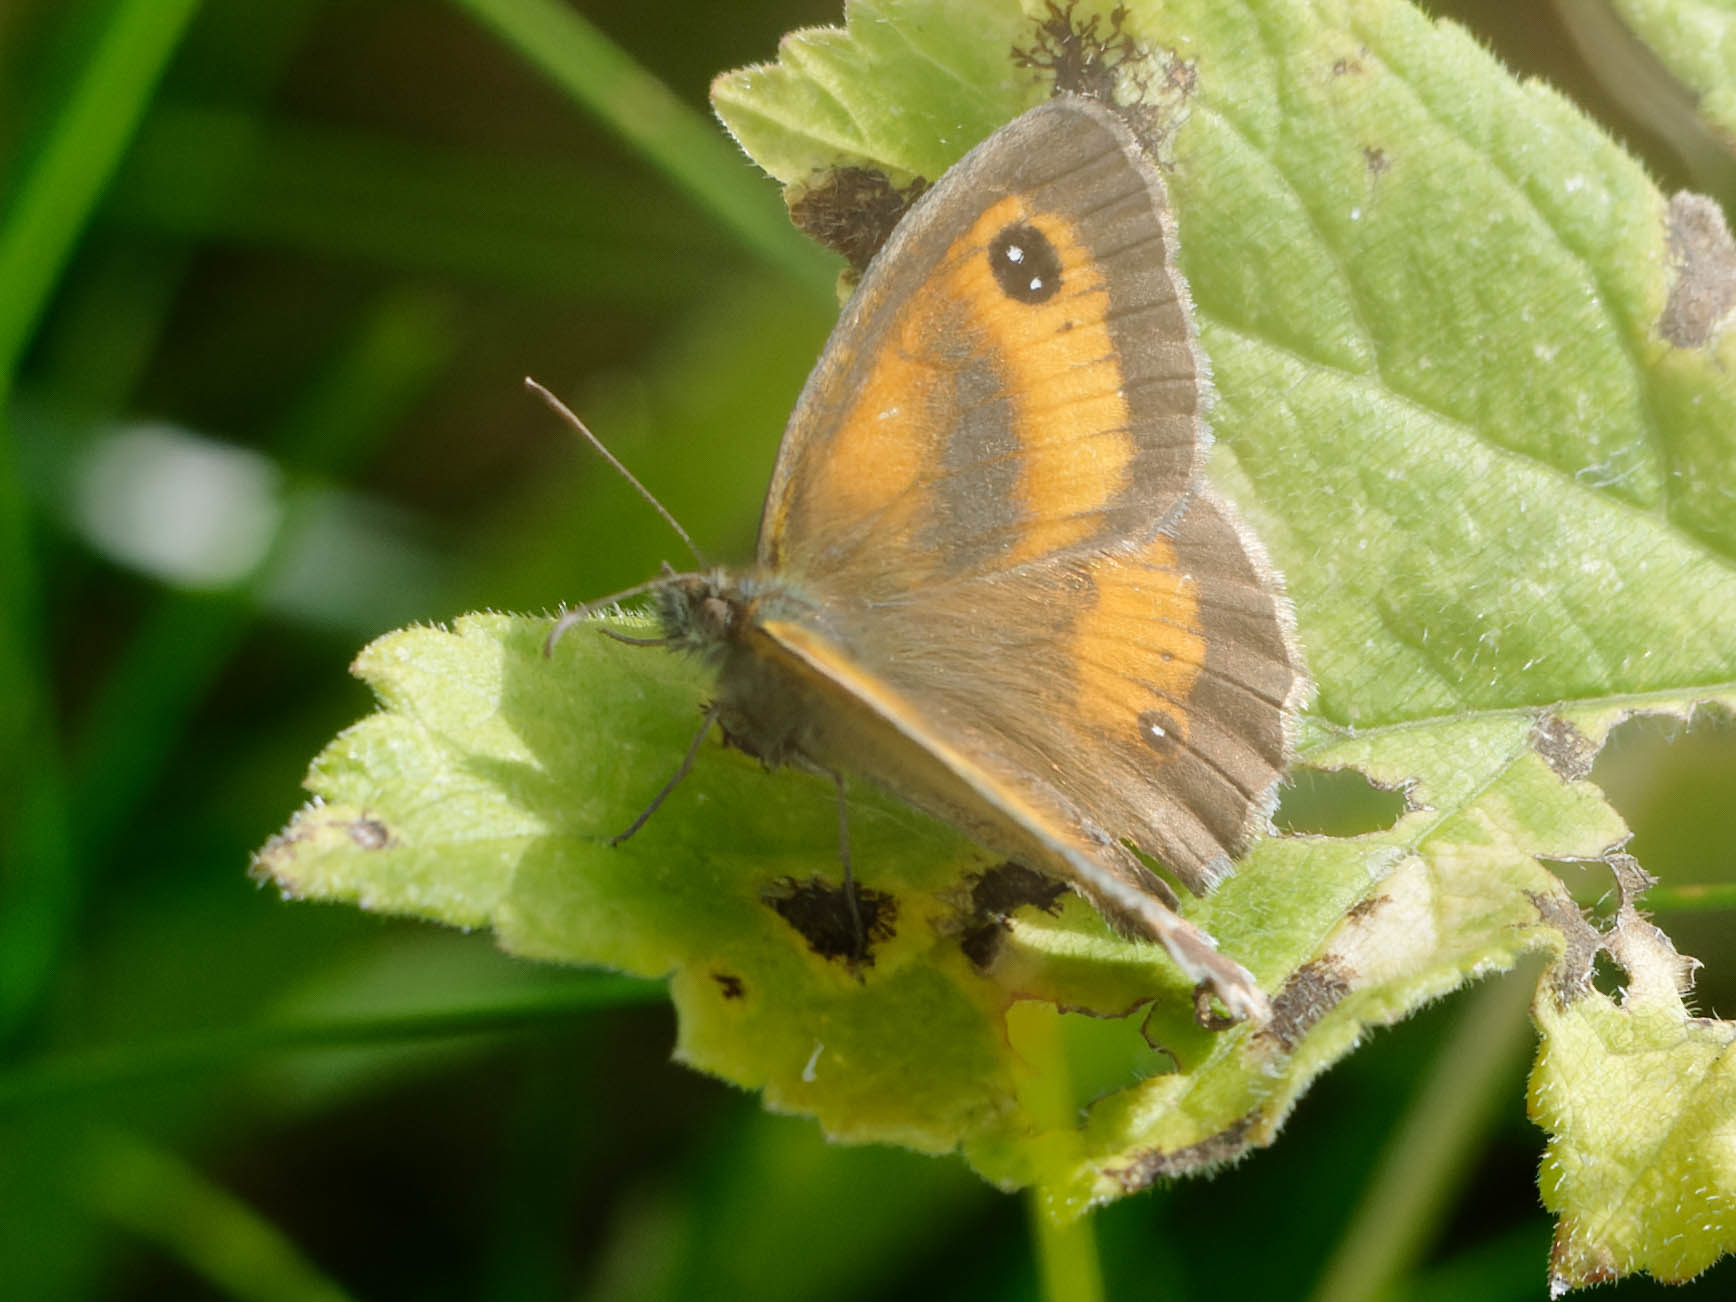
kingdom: Animalia
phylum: Arthropoda
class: Insecta
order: Lepidoptera
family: Nymphalidae
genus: Pyronia
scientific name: Pyronia tithonus
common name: Gatekeeper
